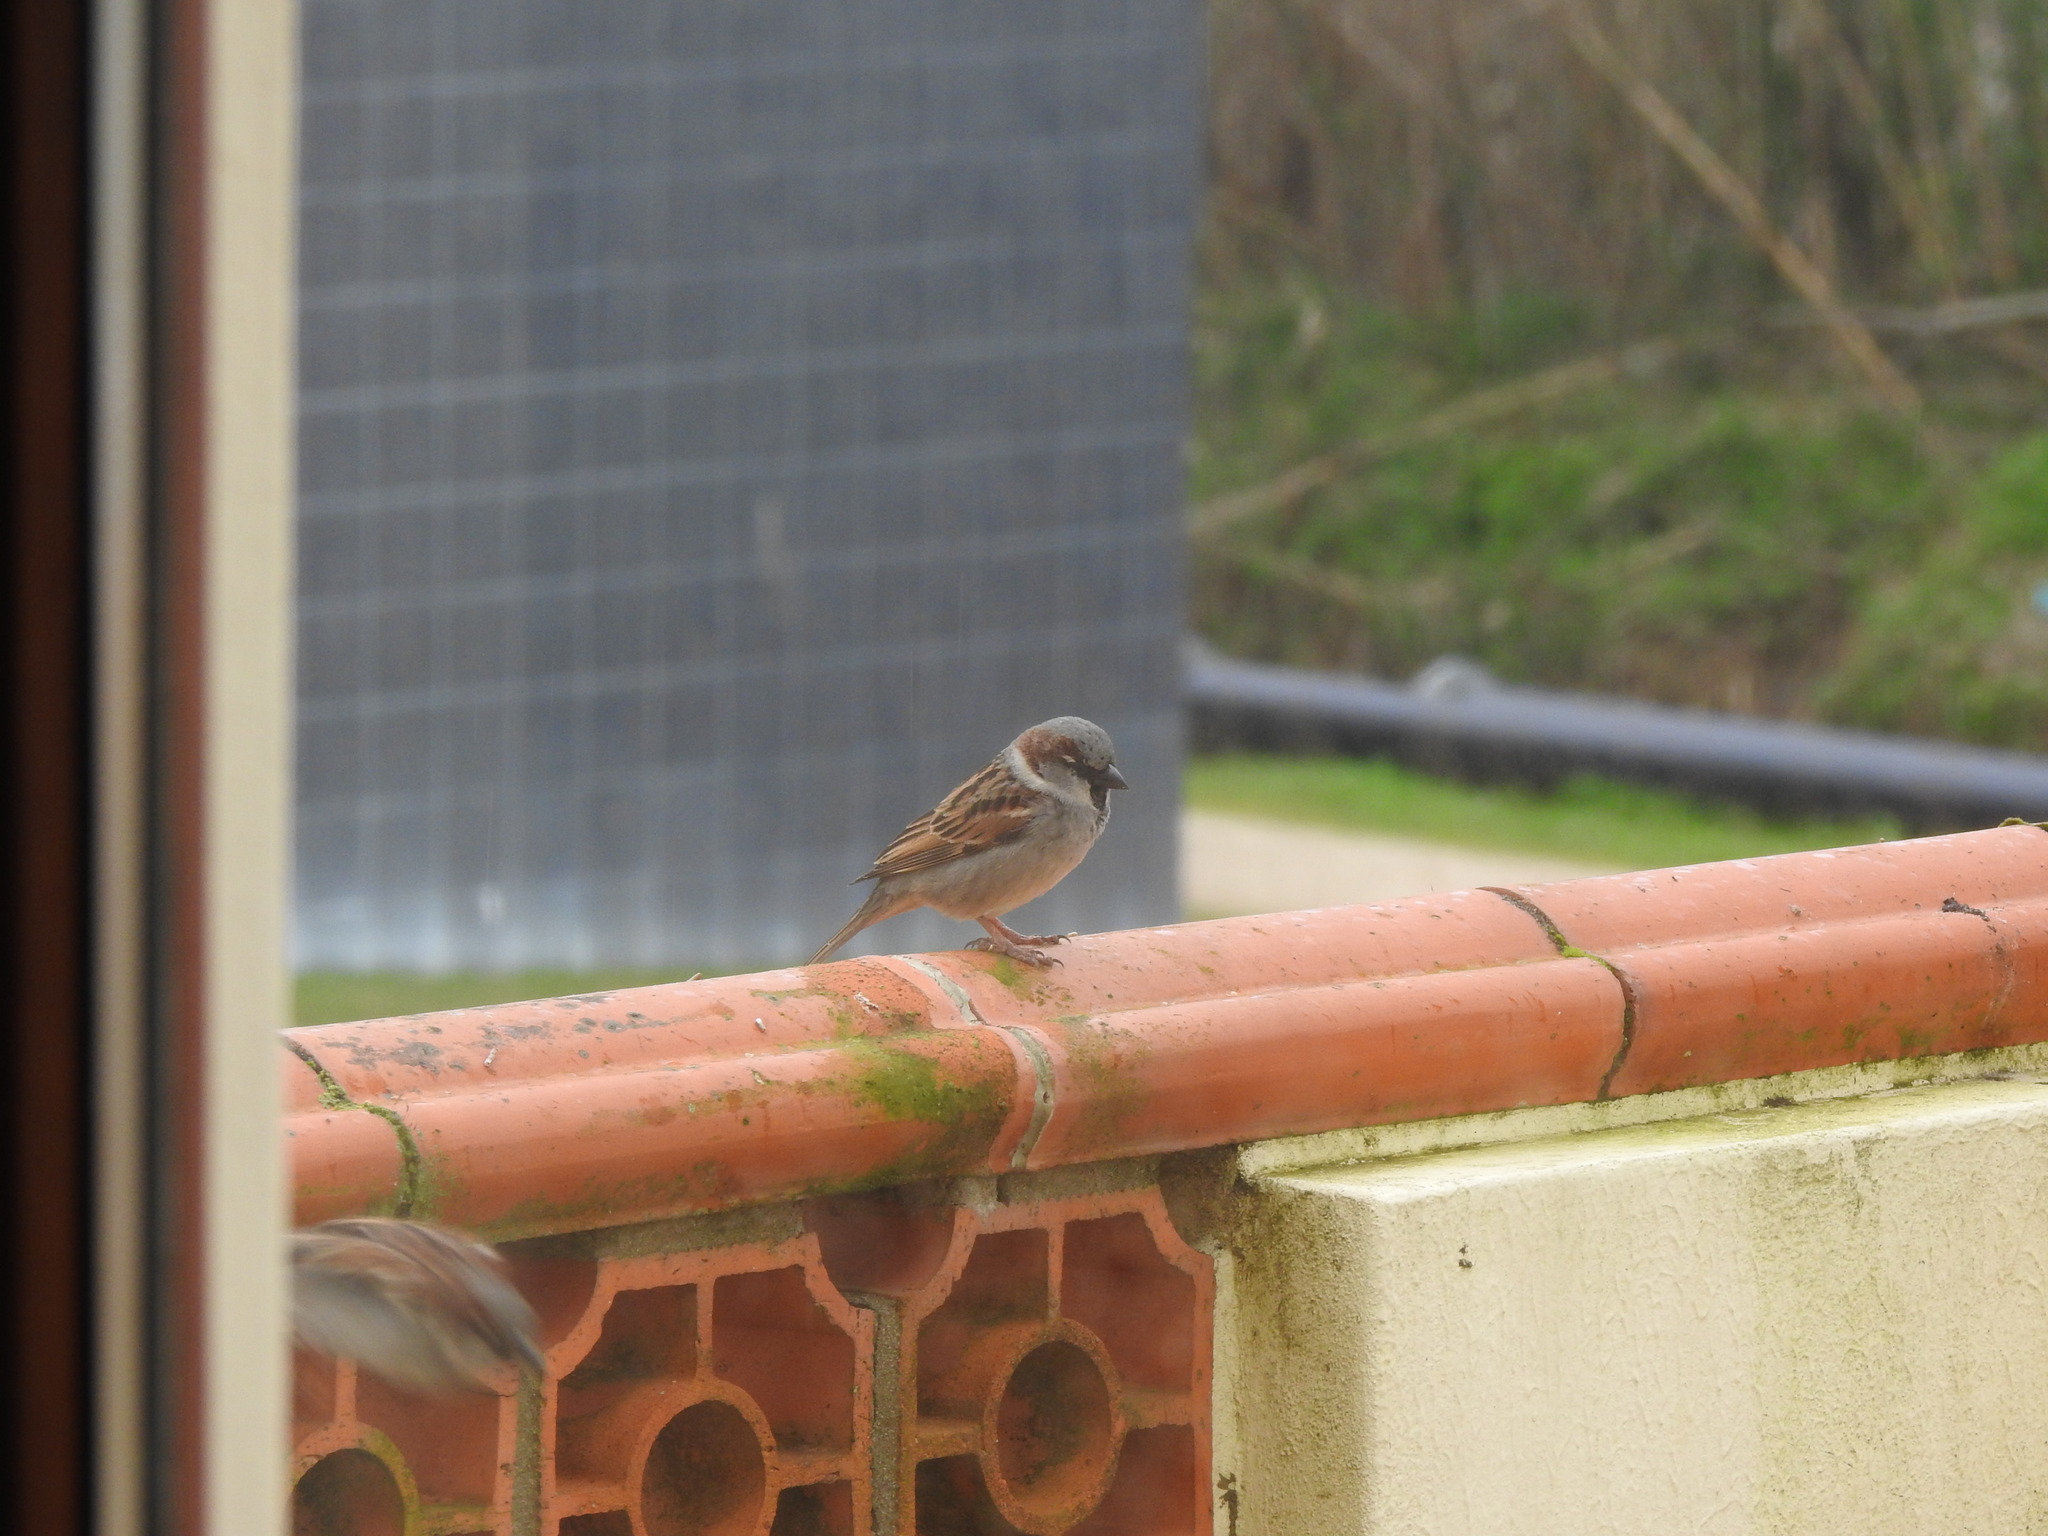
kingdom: Animalia
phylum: Chordata
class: Aves
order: Passeriformes
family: Passeridae
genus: Passer
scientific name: Passer domesticus
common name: House sparrow
